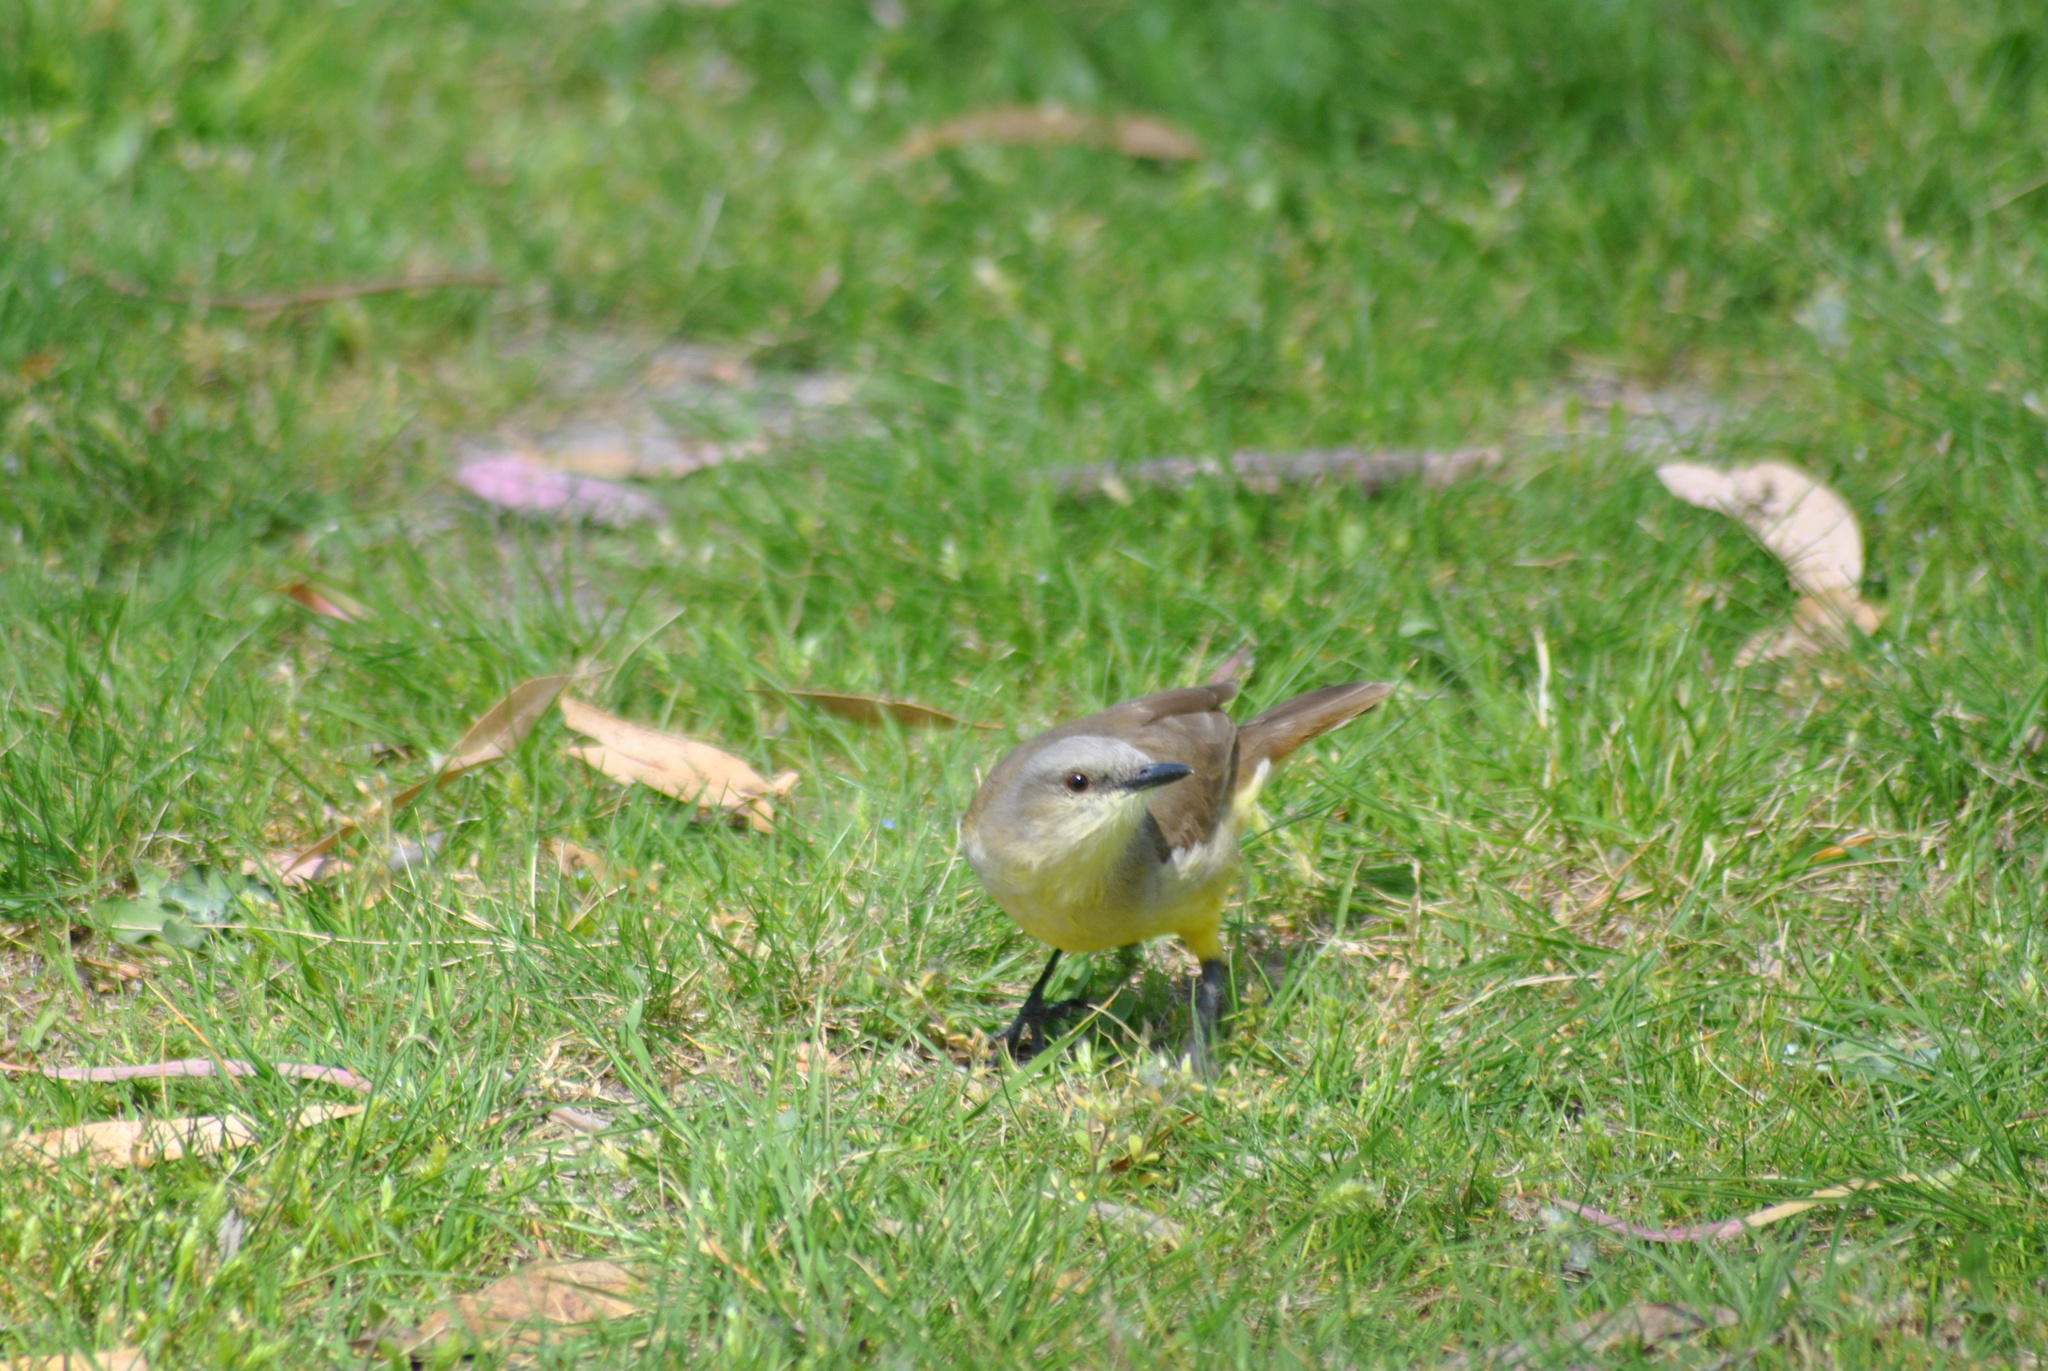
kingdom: Animalia
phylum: Chordata
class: Aves
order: Passeriformes
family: Tyrannidae
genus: Machetornis
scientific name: Machetornis rixosa
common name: Cattle tyrant
